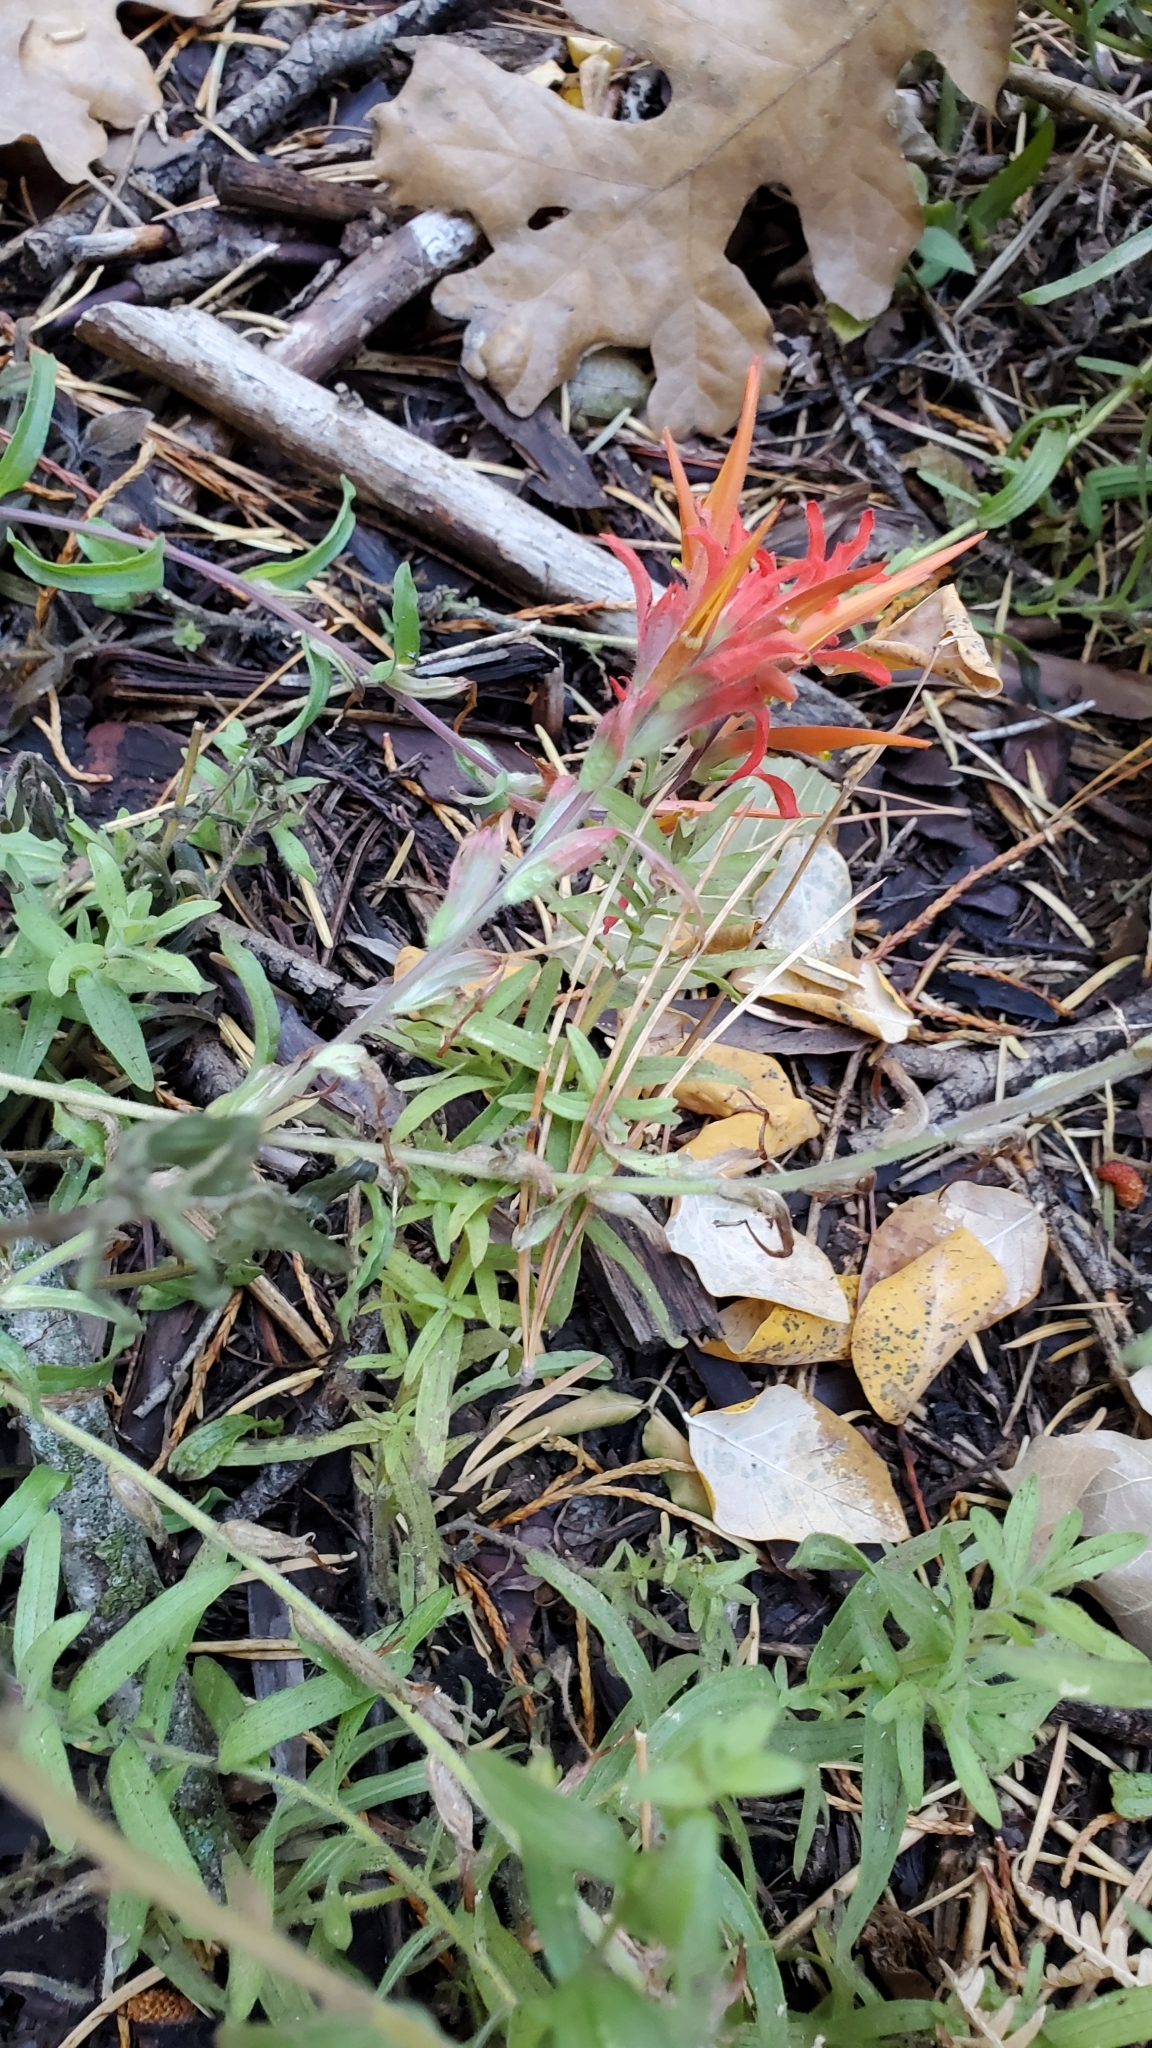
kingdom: Plantae
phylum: Tracheophyta
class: Magnoliopsida
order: Lamiales
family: Orobanchaceae
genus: Castilleja
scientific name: Castilleja subinclusa
